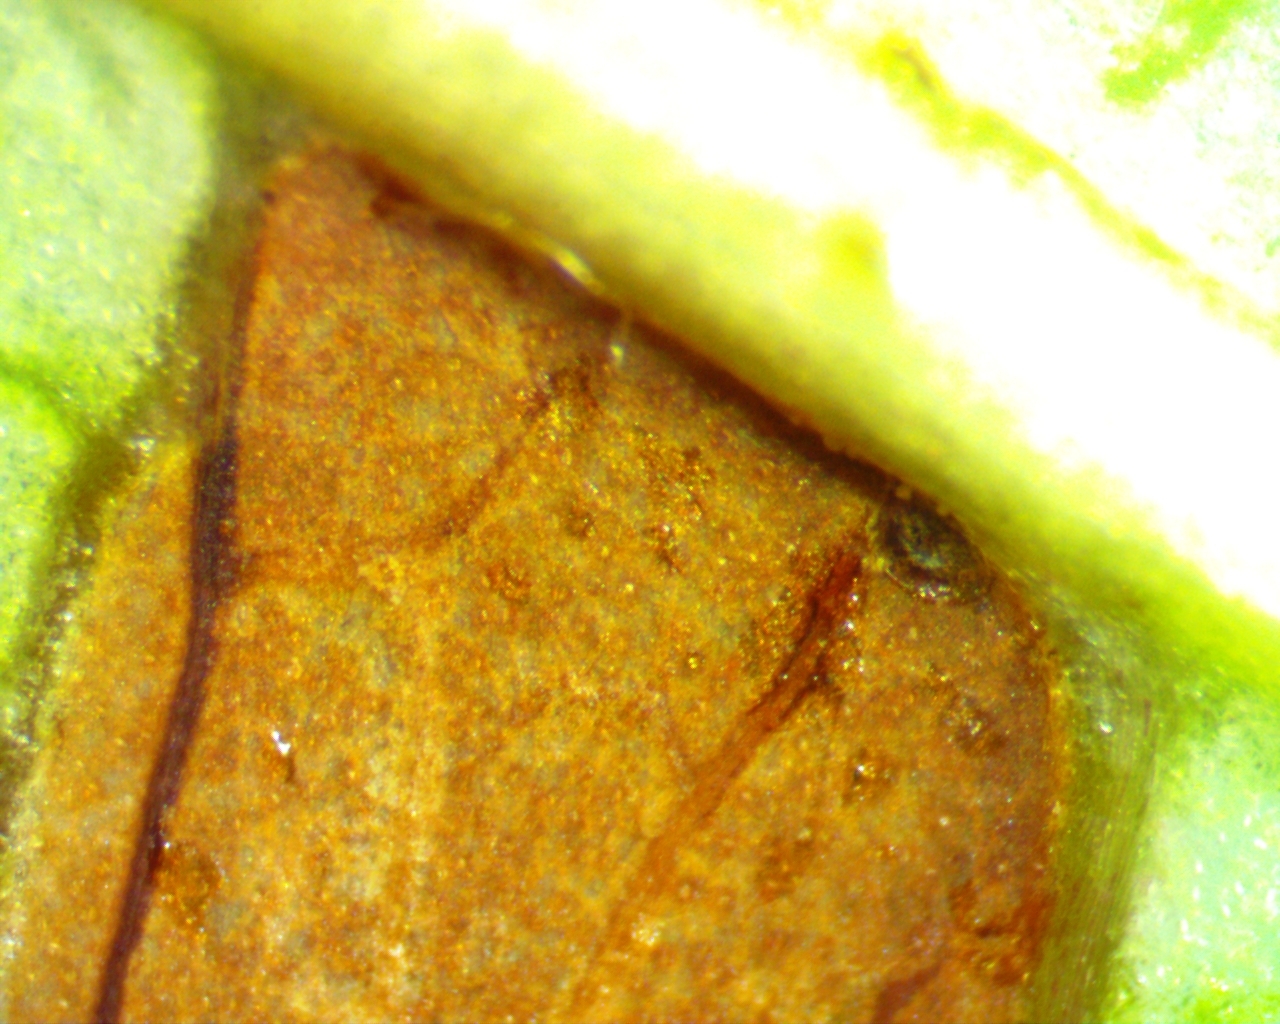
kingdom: Animalia
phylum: Arthropoda
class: Insecta
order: Lepidoptera
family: Nepticulidae
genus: Stigmella
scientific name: Stigmella prunifoliella
